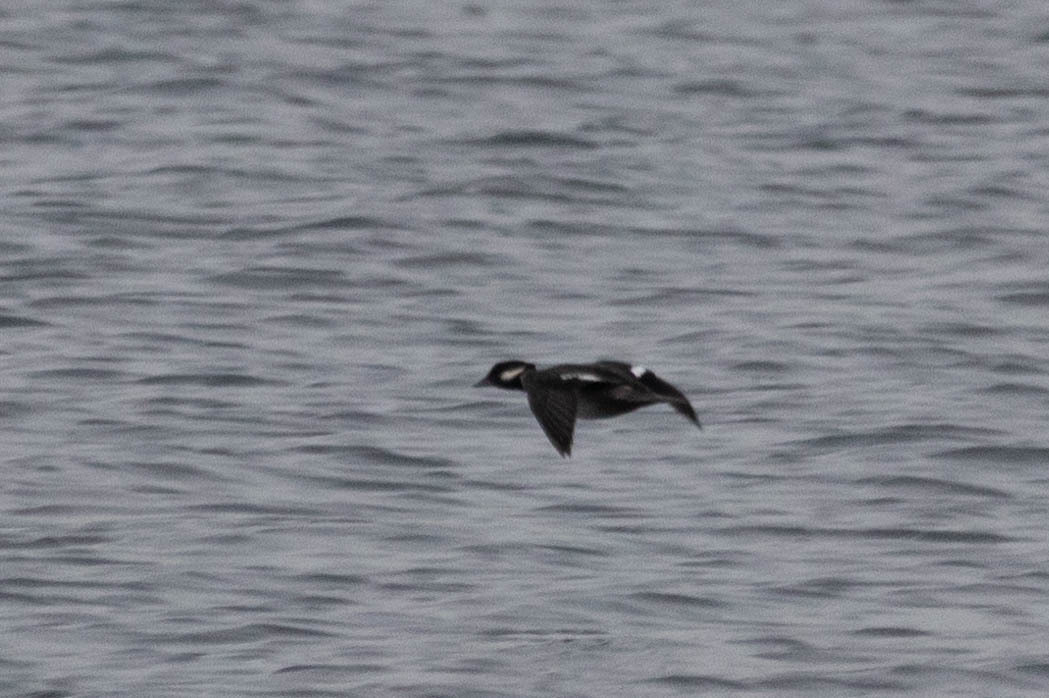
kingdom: Animalia
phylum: Chordata
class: Aves
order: Anseriformes
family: Anatidae
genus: Bucephala
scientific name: Bucephala albeola
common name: Bufflehead
